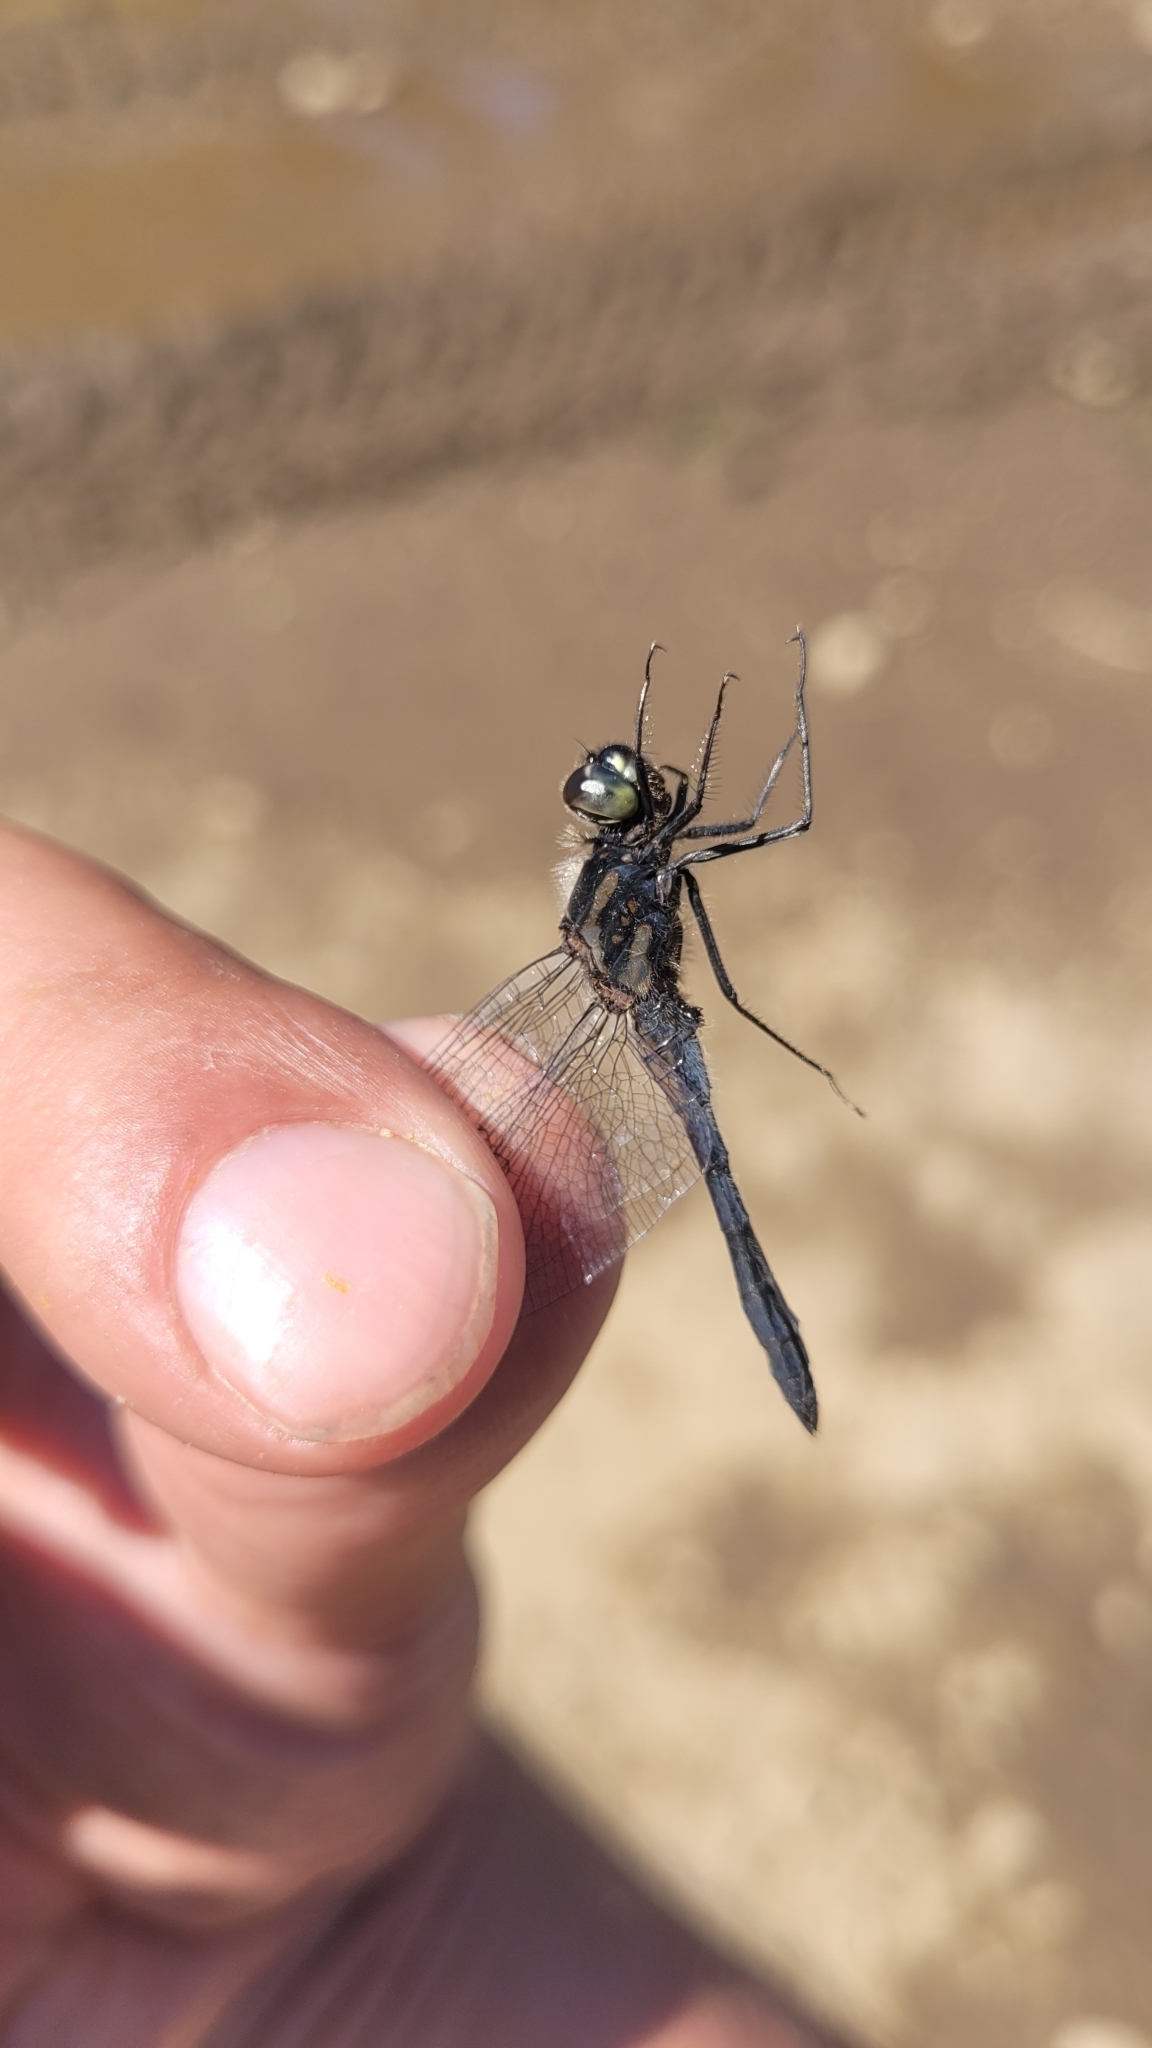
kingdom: Animalia
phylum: Arthropoda
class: Insecta
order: Odonata
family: Libellulidae
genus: Sympetrum
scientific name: Sympetrum danae
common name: Black darter
